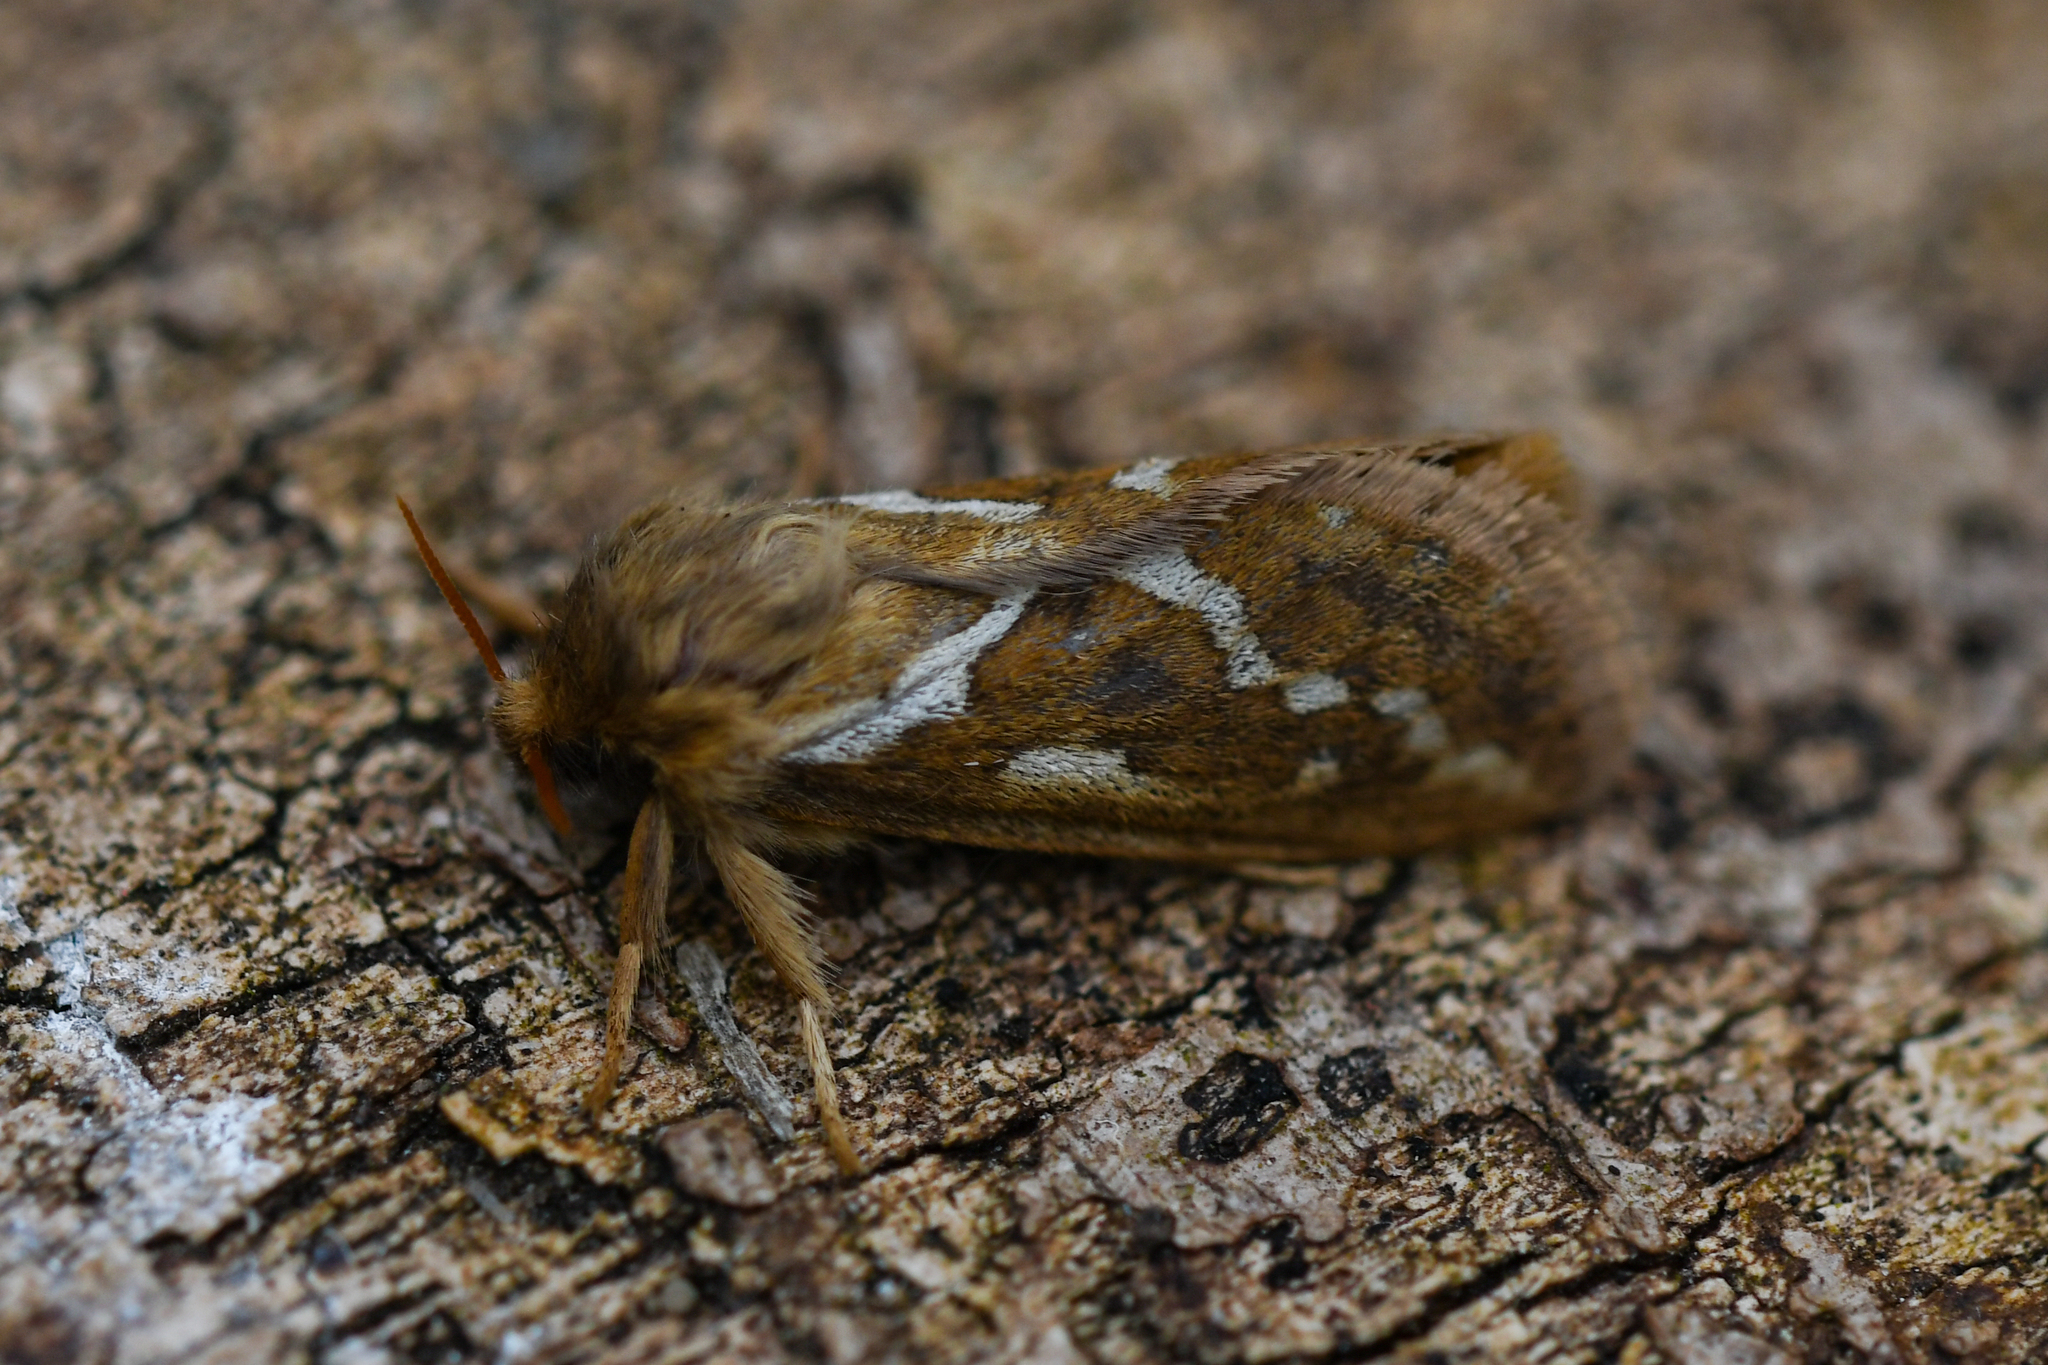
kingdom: Animalia
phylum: Arthropoda
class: Insecta
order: Lepidoptera
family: Hepialidae
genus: Korscheltellus
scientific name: Korscheltellus lupulina
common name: Common swift
